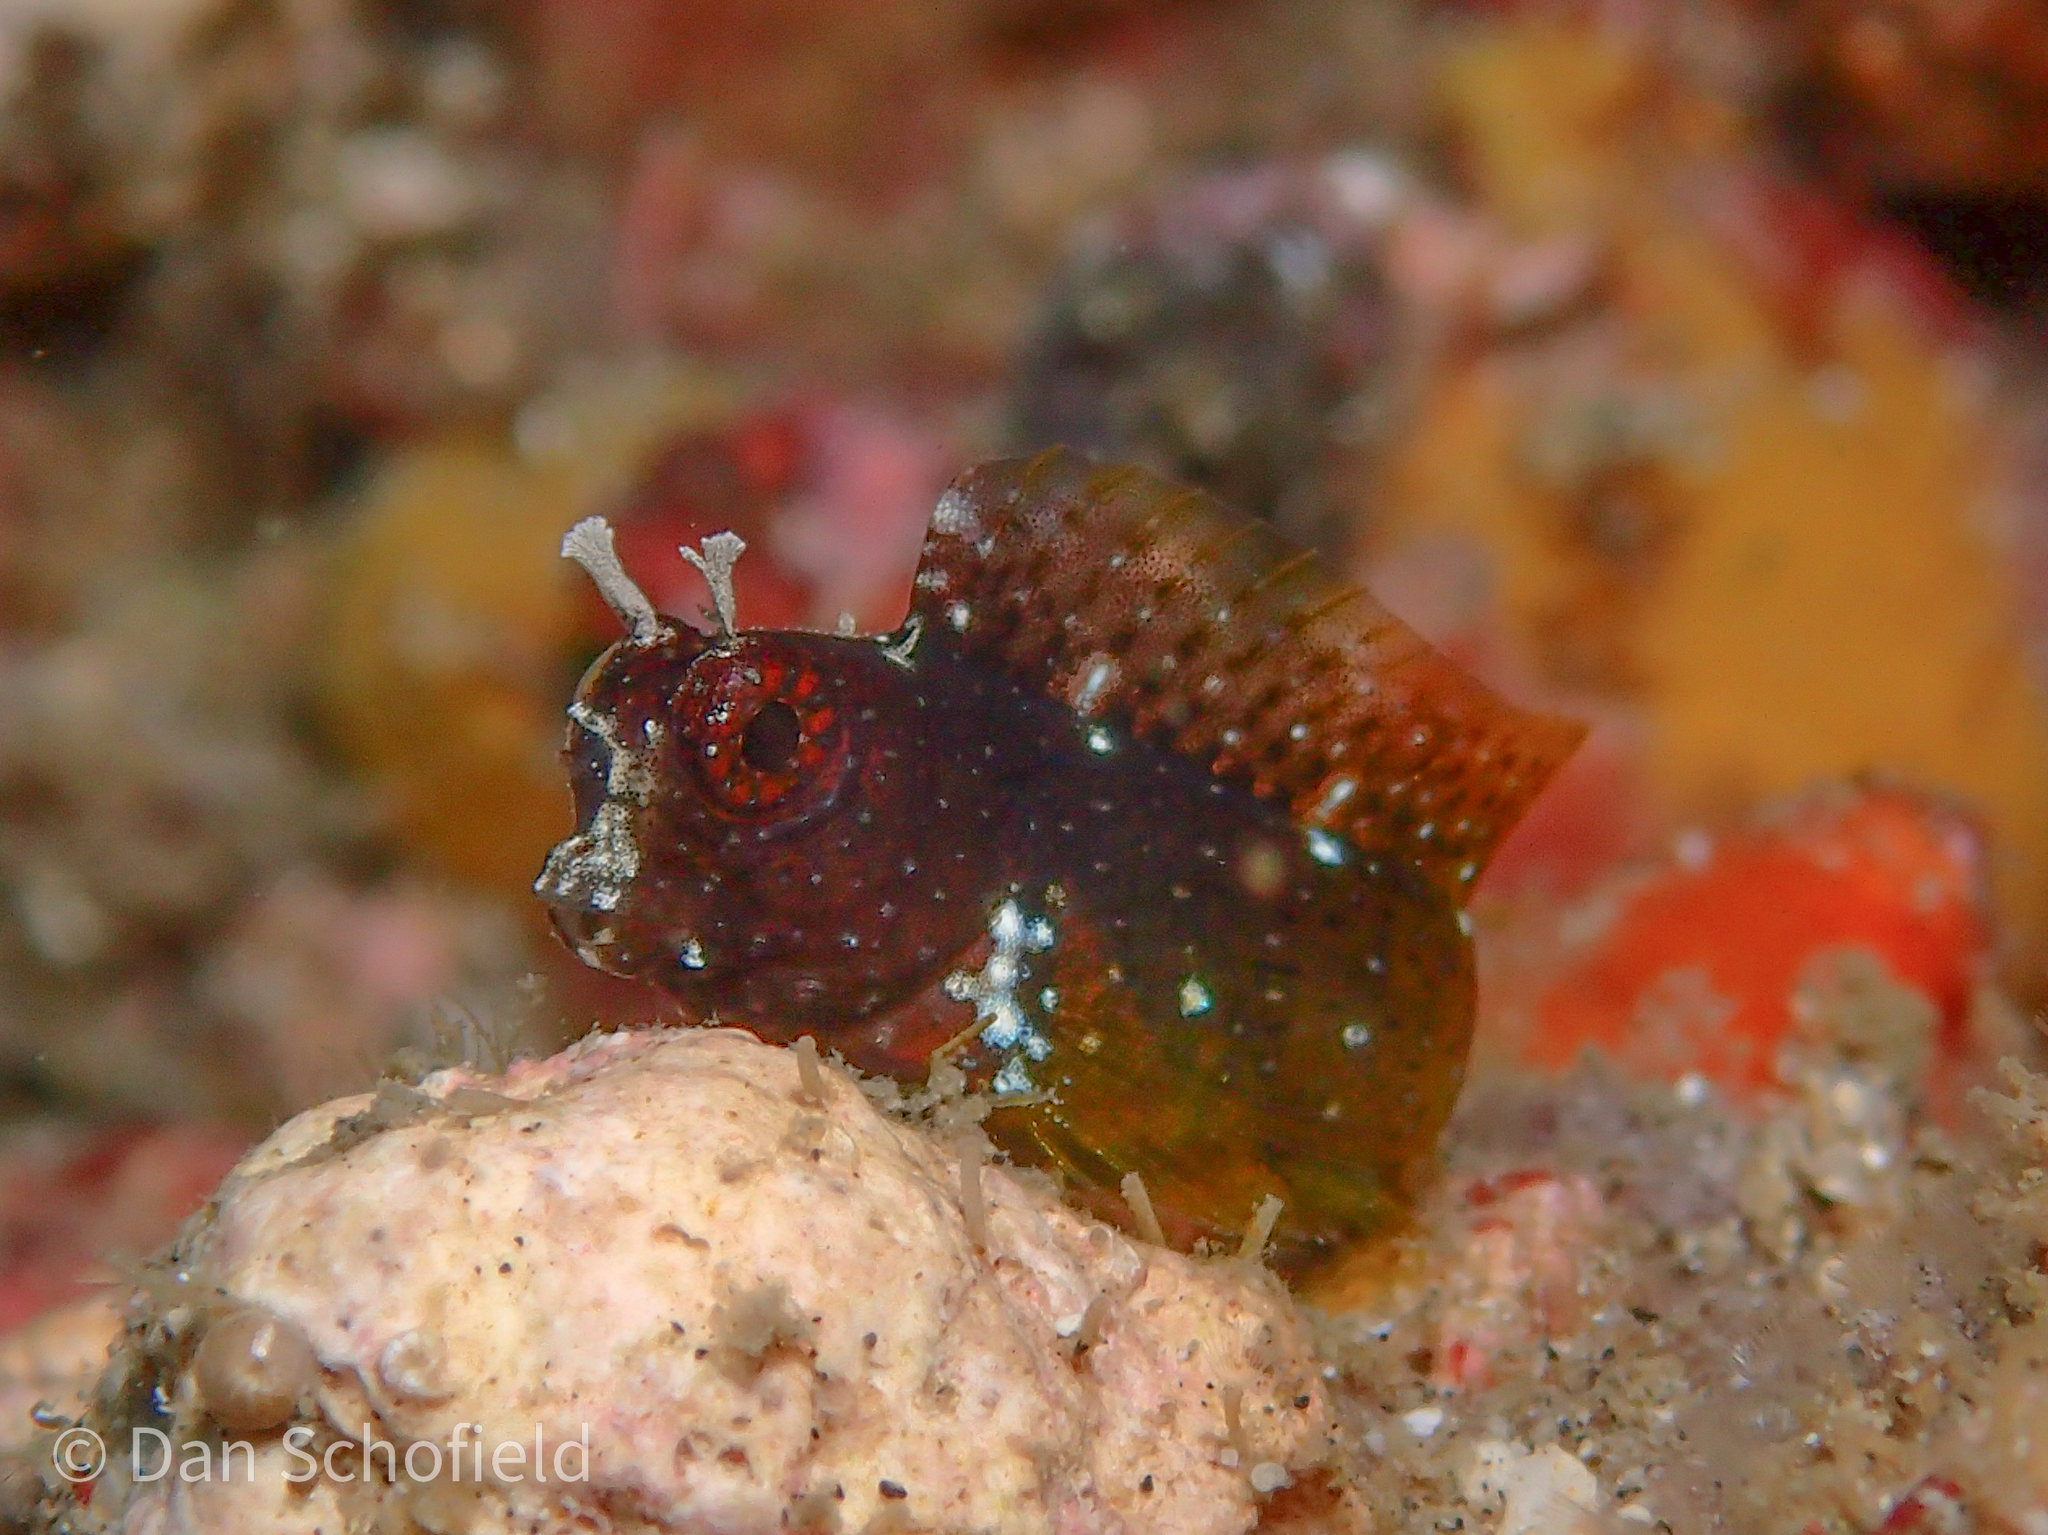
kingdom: Animalia
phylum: Chordata
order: Perciformes
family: Blenniidae
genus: Salarias
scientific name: Salarias ramosus
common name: Snowflake blenny
